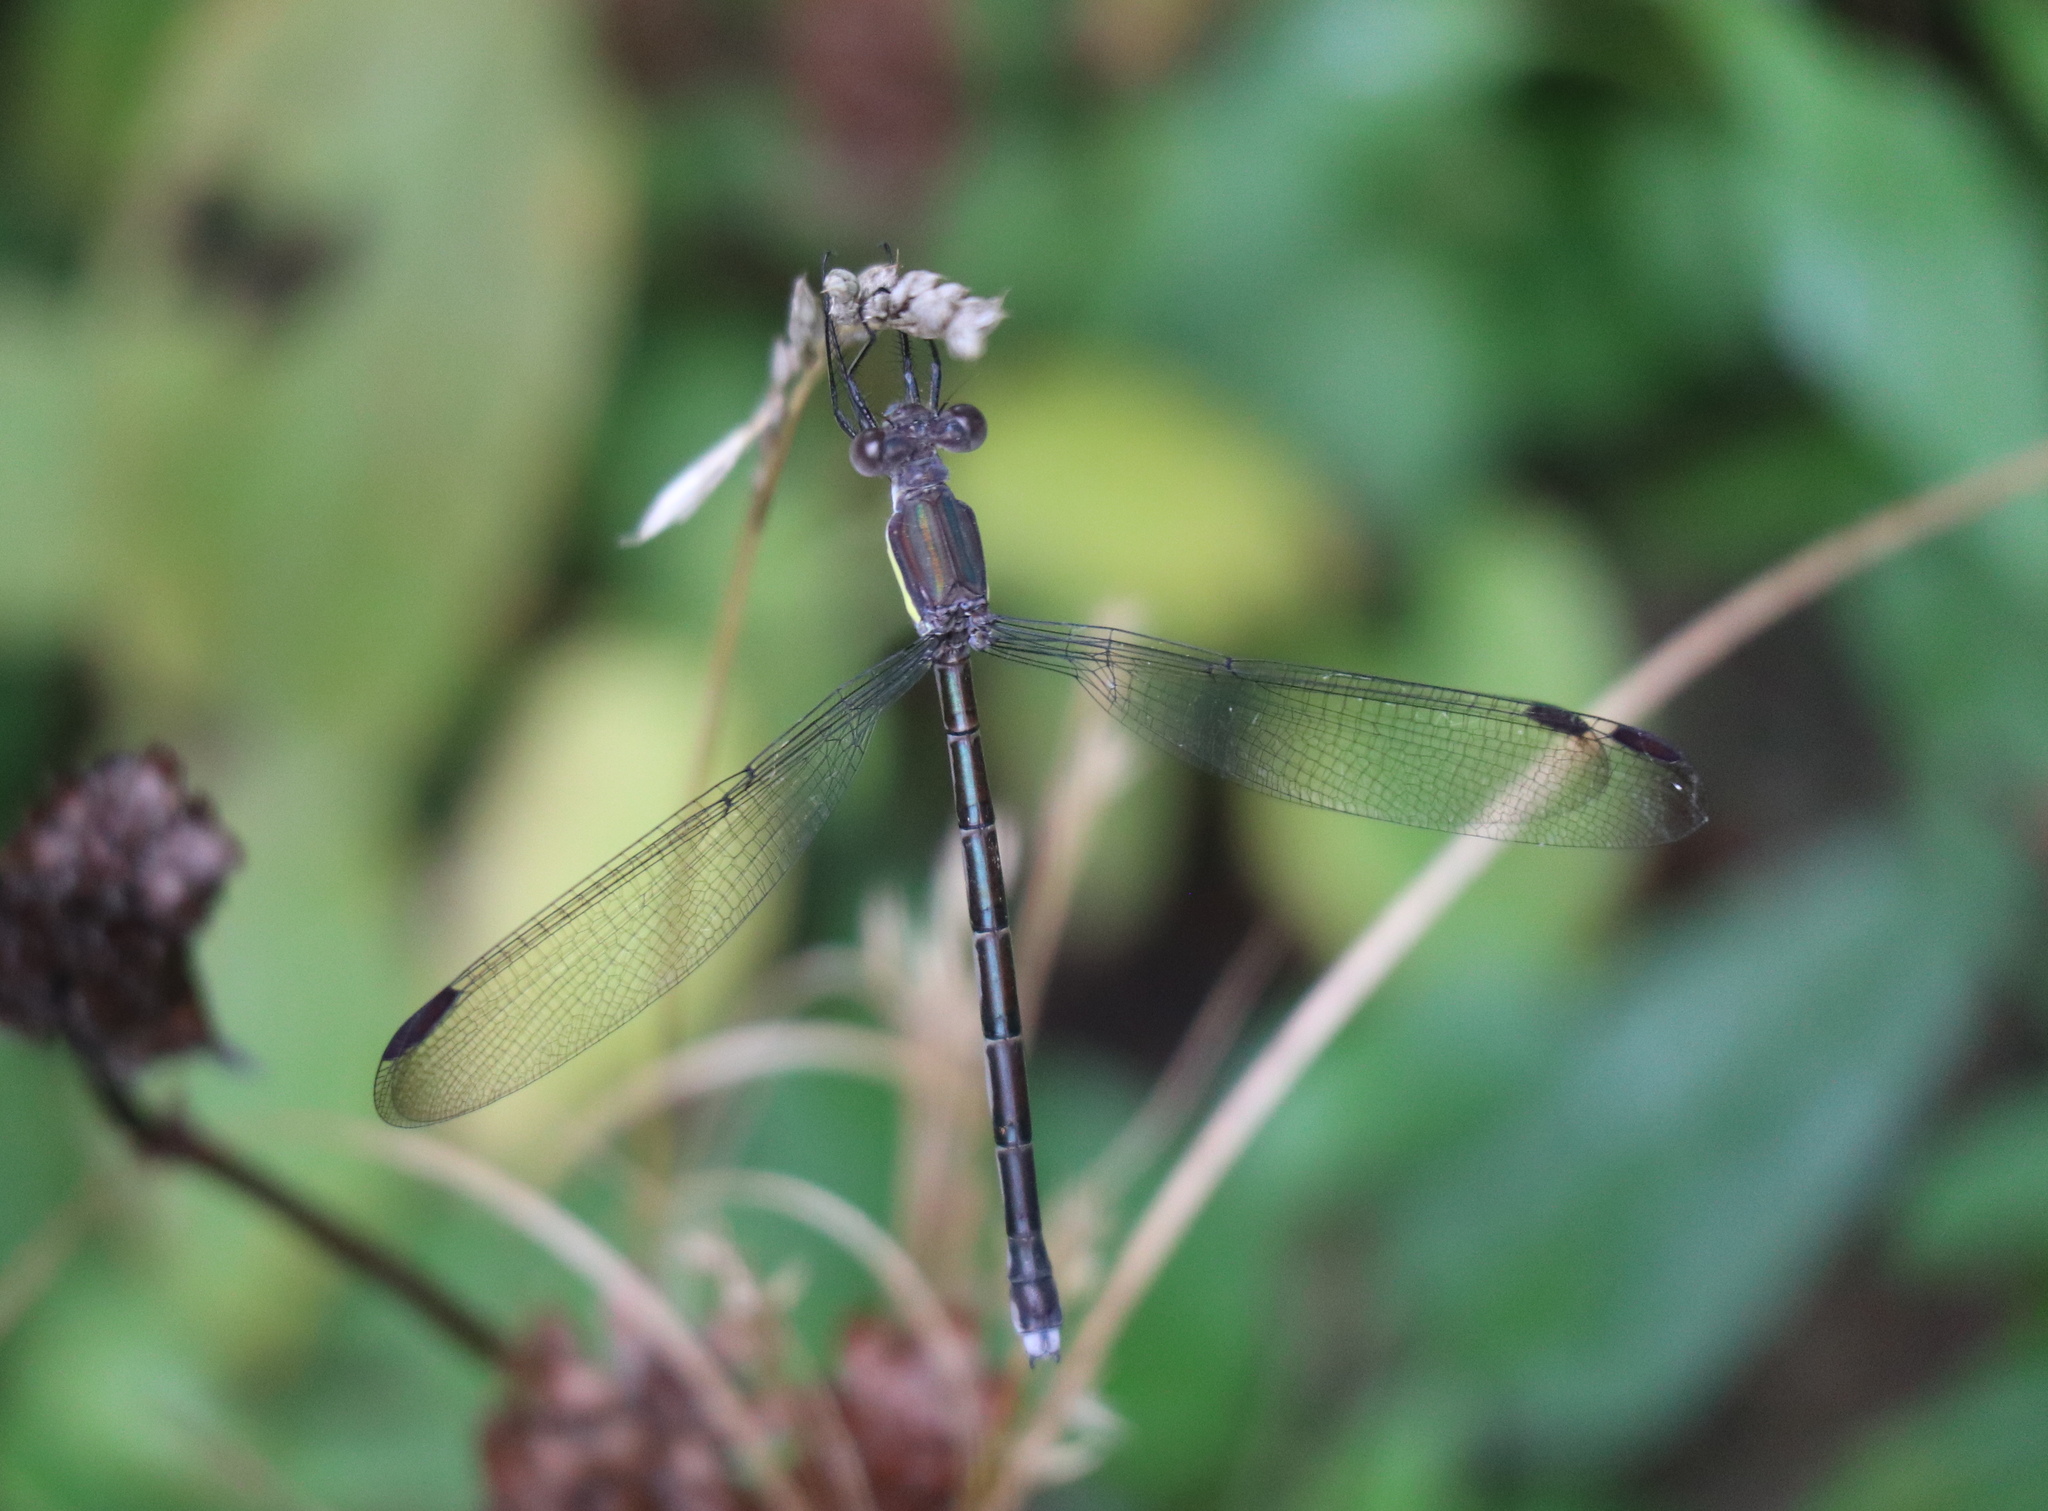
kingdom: Animalia
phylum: Arthropoda
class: Insecta
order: Odonata
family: Lestidae
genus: Archilestes
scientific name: Archilestes grandis
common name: Great spreadwing
